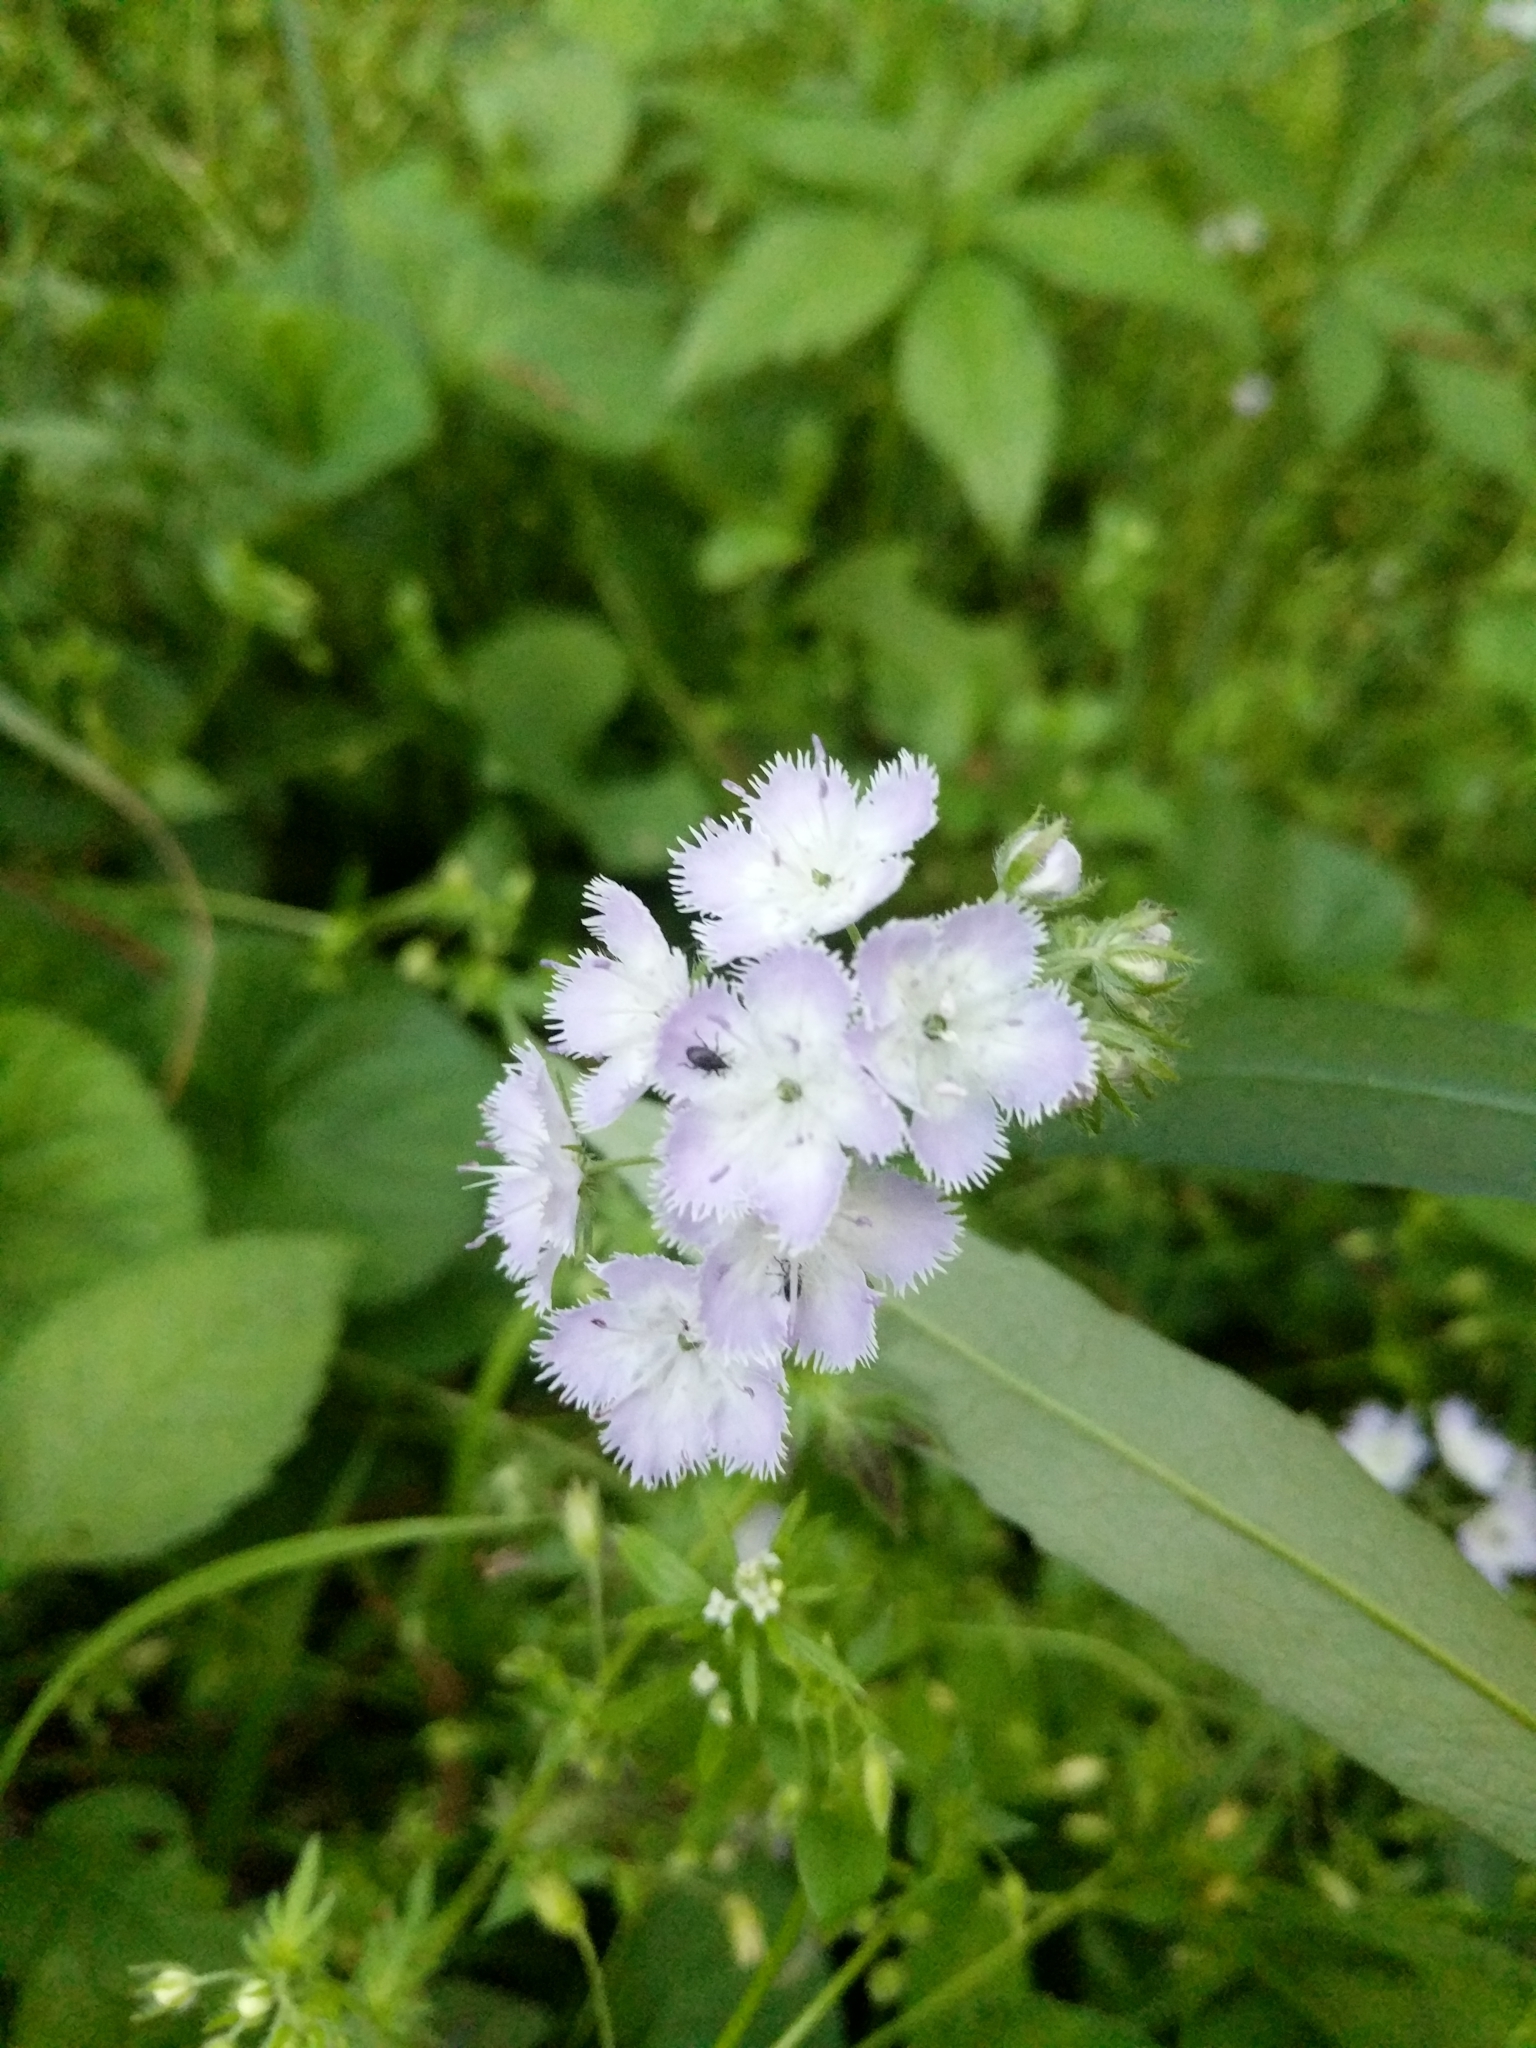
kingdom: Plantae
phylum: Tracheophyta
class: Magnoliopsida
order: Boraginales
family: Hydrophyllaceae
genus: Phacelia
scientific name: Phacelia purshii
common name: Miami-mist
